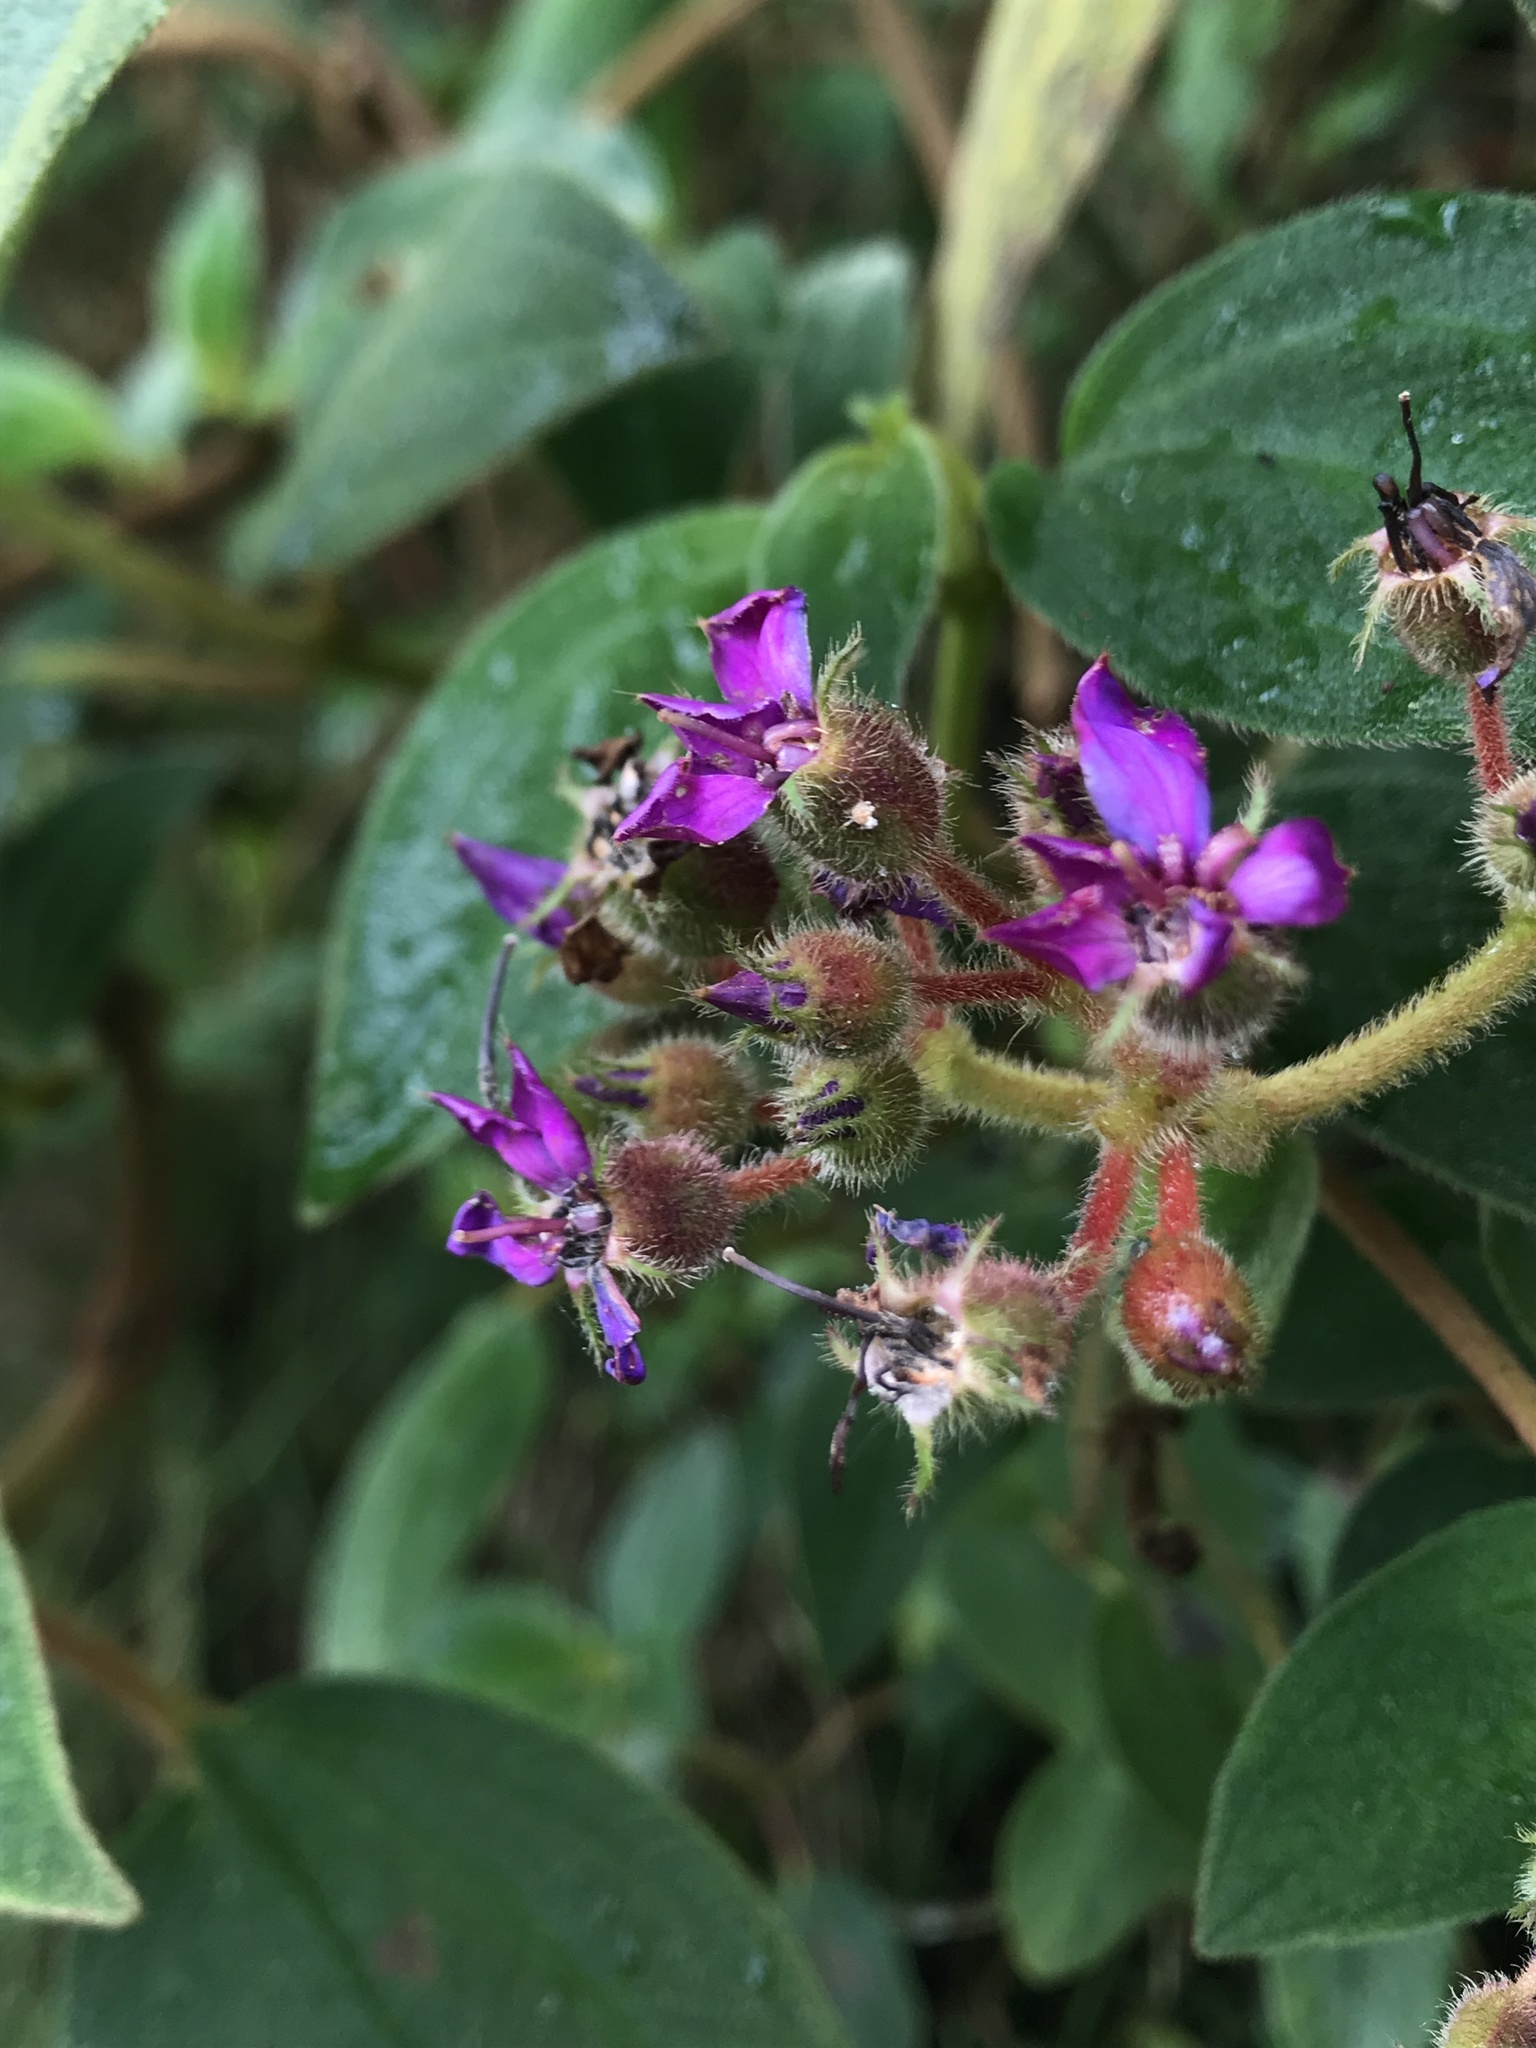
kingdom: Plantae
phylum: Tracheophyta
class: Magnoliopsida
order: Myrtales
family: Melastomataceae
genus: Chaetogastra
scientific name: Chaetogastra mollis
